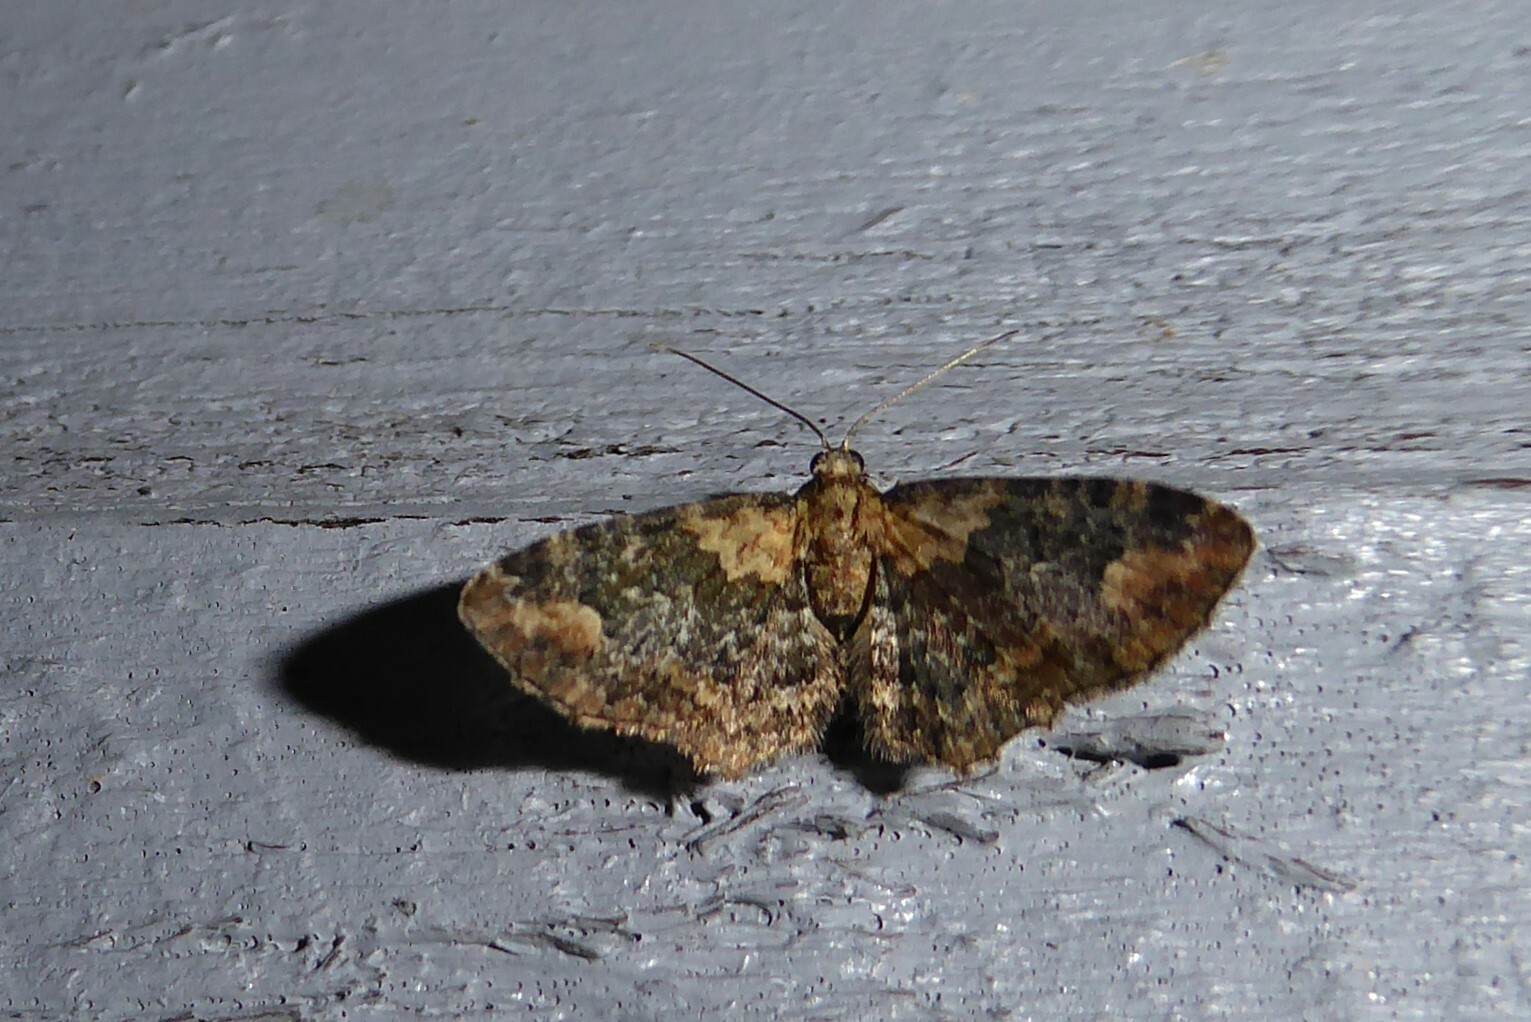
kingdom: Animalia
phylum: Arthropoda
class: Insecta
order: Lepidoptera
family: Geometridae
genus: Pasiphilodes
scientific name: Pasiphilodes testulata
